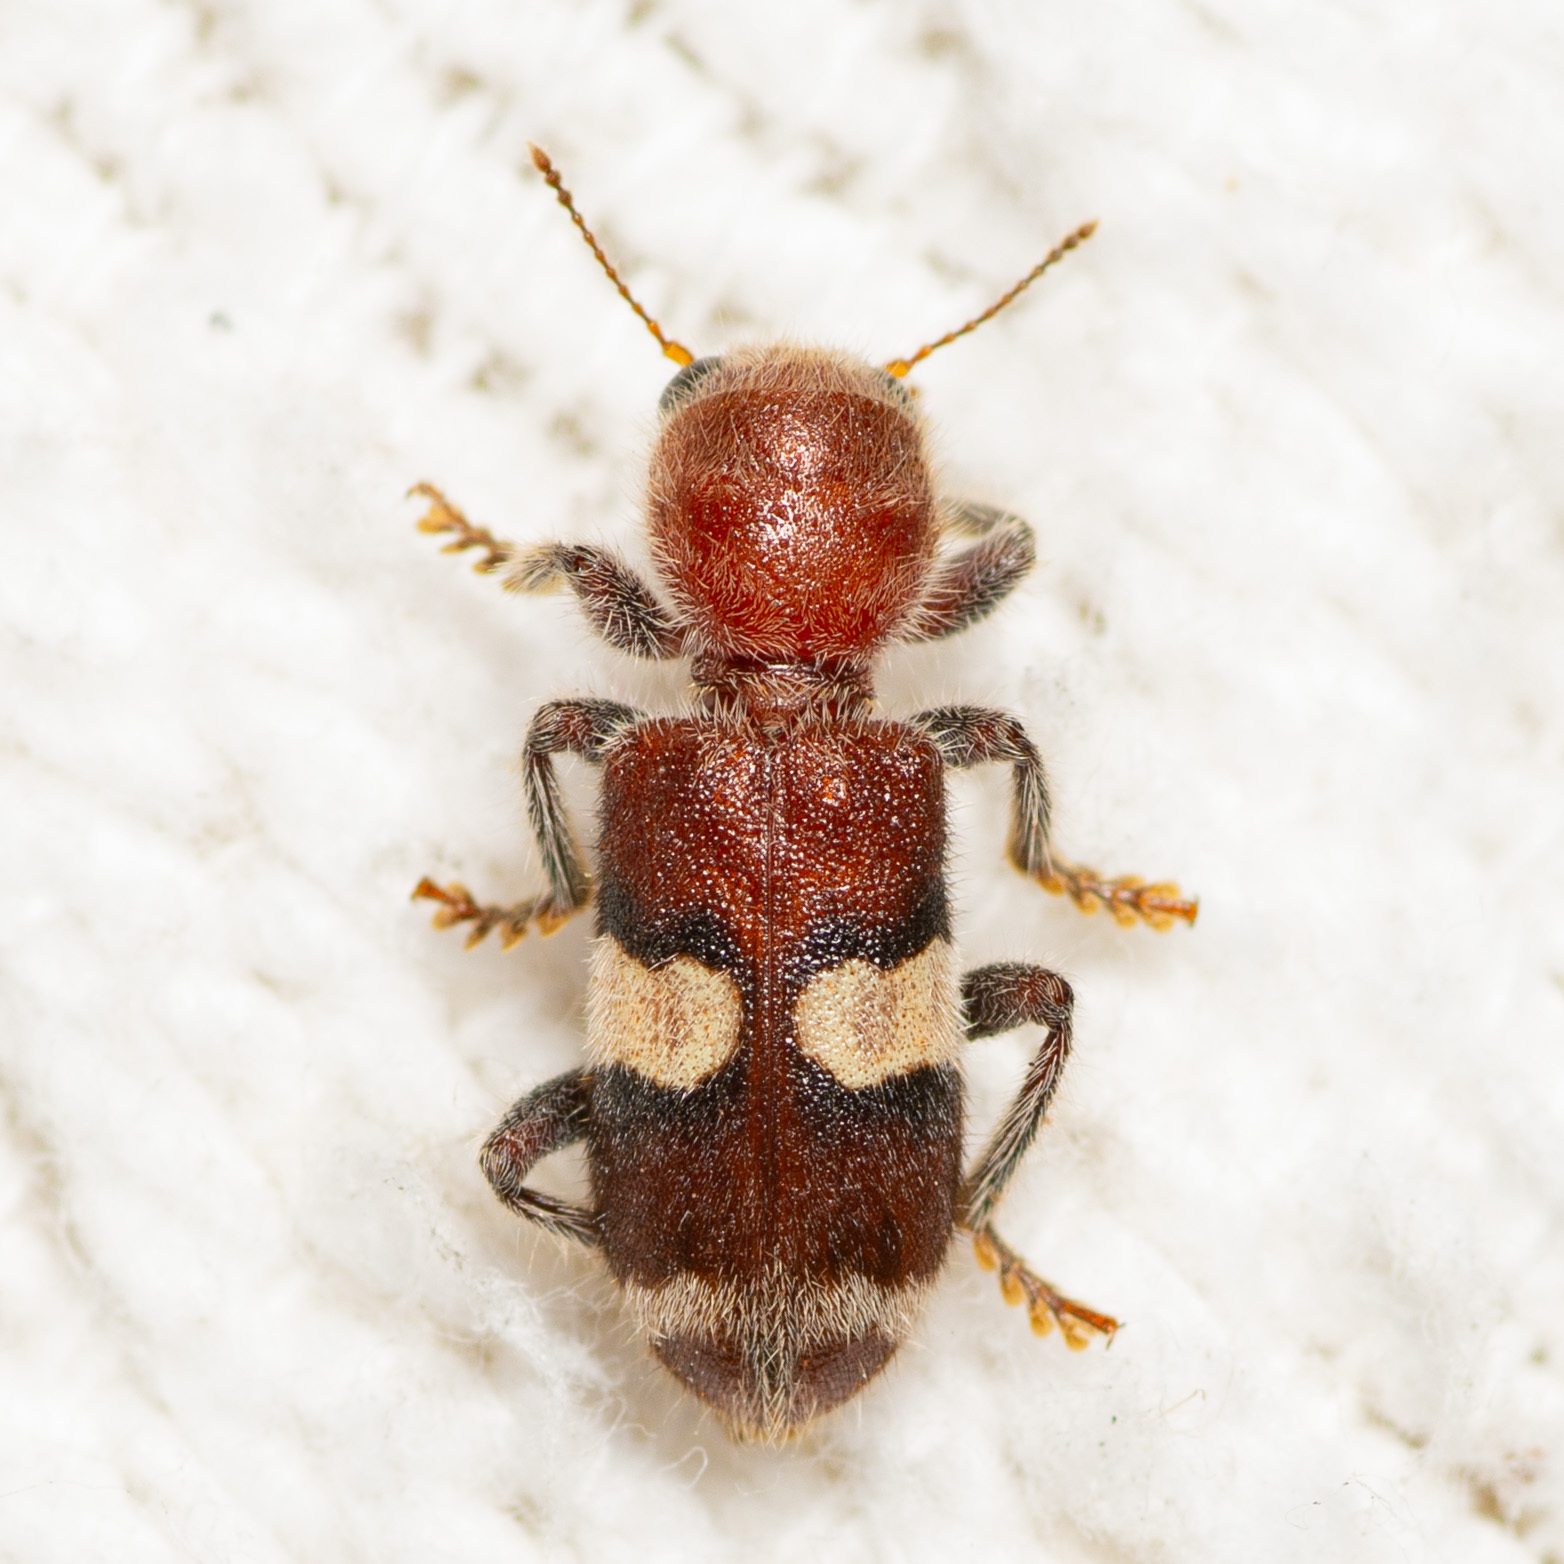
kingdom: Animalia
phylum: Arthropoda
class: Insecta
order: Coleoptera
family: Cleridae
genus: Enoclerus
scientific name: Enoclerus quadrisignatus
